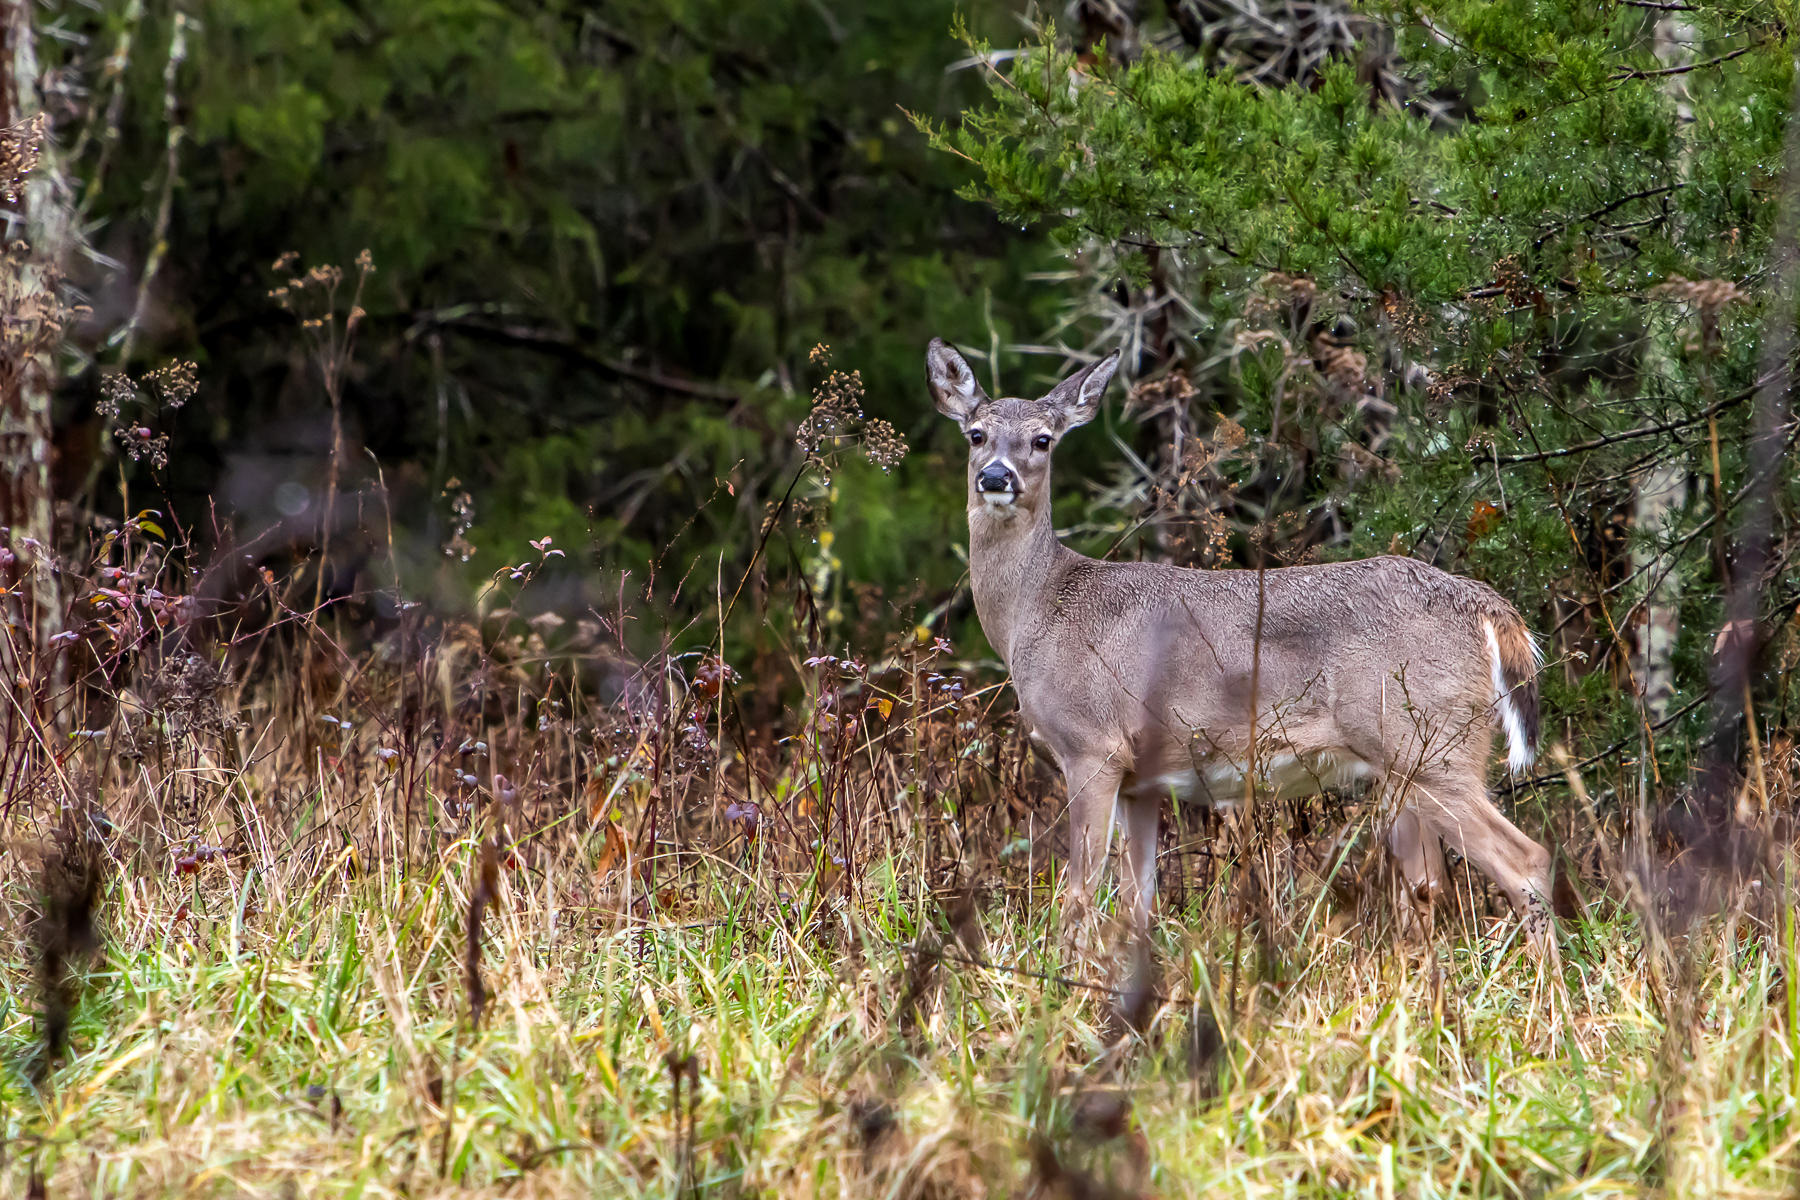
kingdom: Animalia
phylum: Chordata
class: Mammalia
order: Artiodactyla
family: Cervidae
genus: Odocoileus
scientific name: Odocoileus virginianus
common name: White-tailed deer
